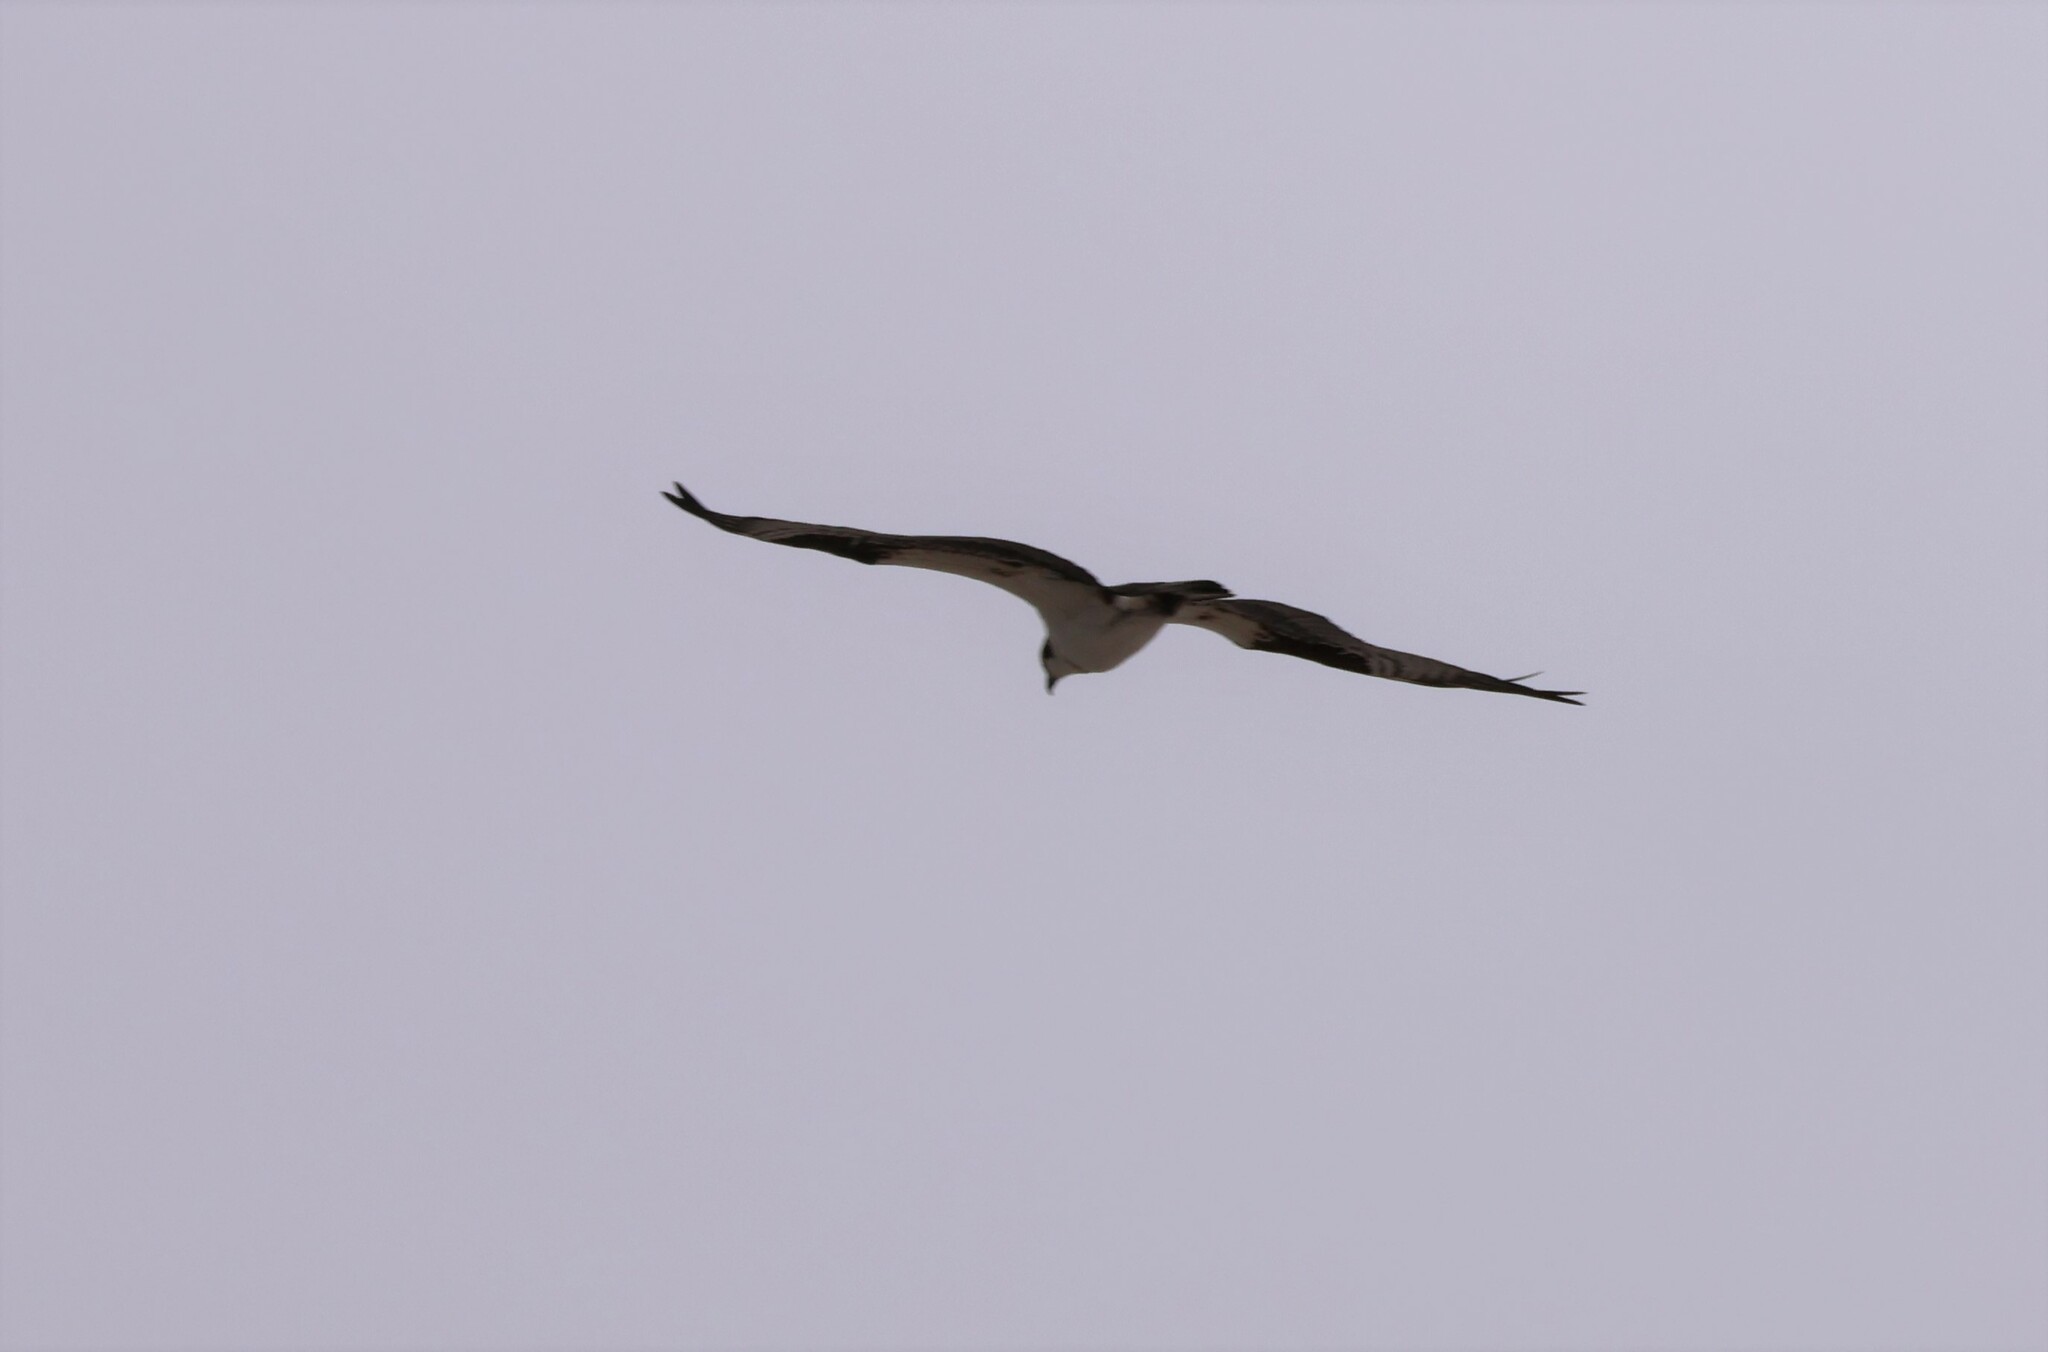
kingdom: Animalia
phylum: Chordata
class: Aves
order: Accipitriformes
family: Pandionidae
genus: Pandion
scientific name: Pandion haliaetus
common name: Osprey
